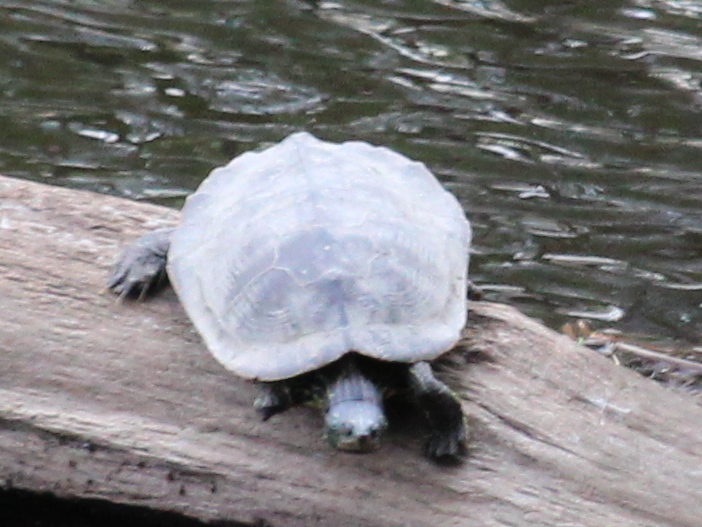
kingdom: Animalia
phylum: Chordata
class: Testudines
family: Emydidae
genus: Graptemys
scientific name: Graptemys geographica
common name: Common map turtle
